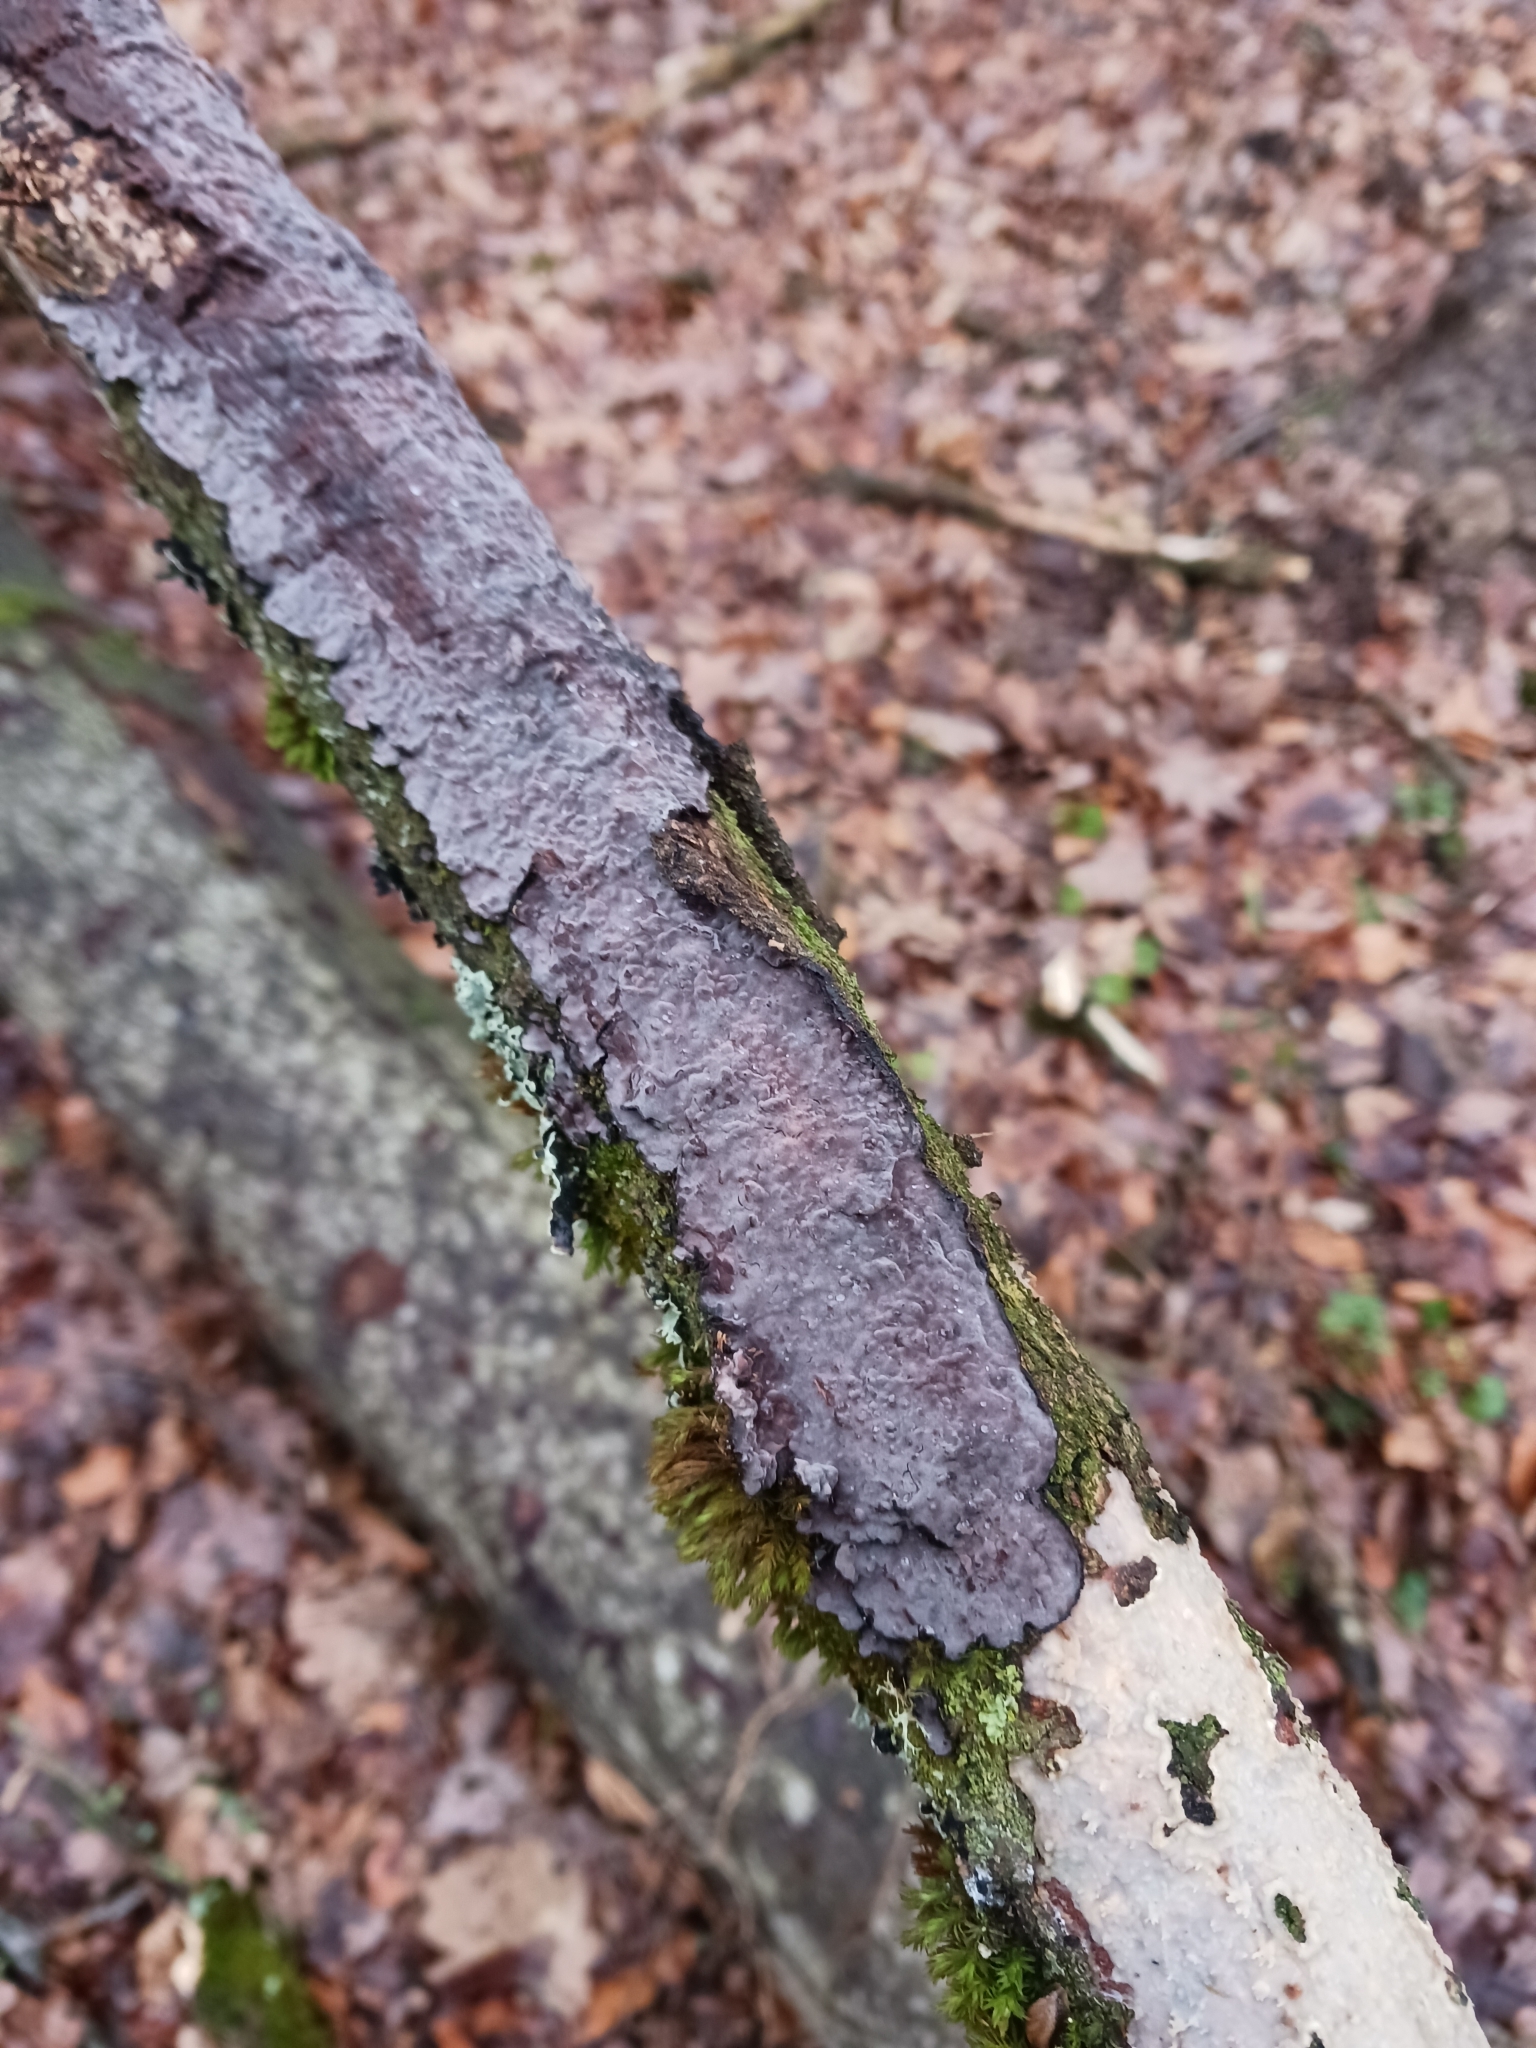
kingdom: Fungi
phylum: Basidiomycota
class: Agaricomycetes
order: Russulales
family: Peniophoraceae
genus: Peniophora
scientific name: Peniophora quercina
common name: Oak crust
